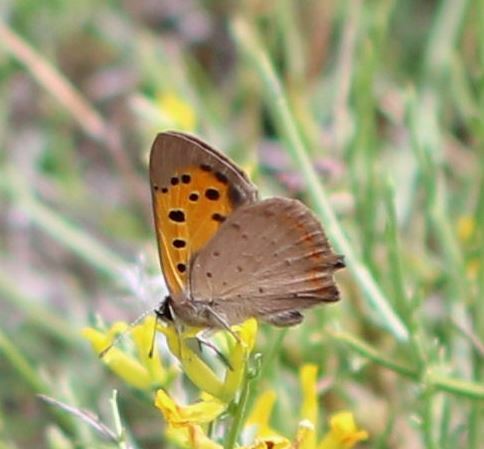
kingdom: Animalia
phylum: Arthropoda
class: Insecta
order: Lepidoptera
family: Lycaenidae
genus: Lycaena
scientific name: Lycaena phlaeas
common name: Small copper
